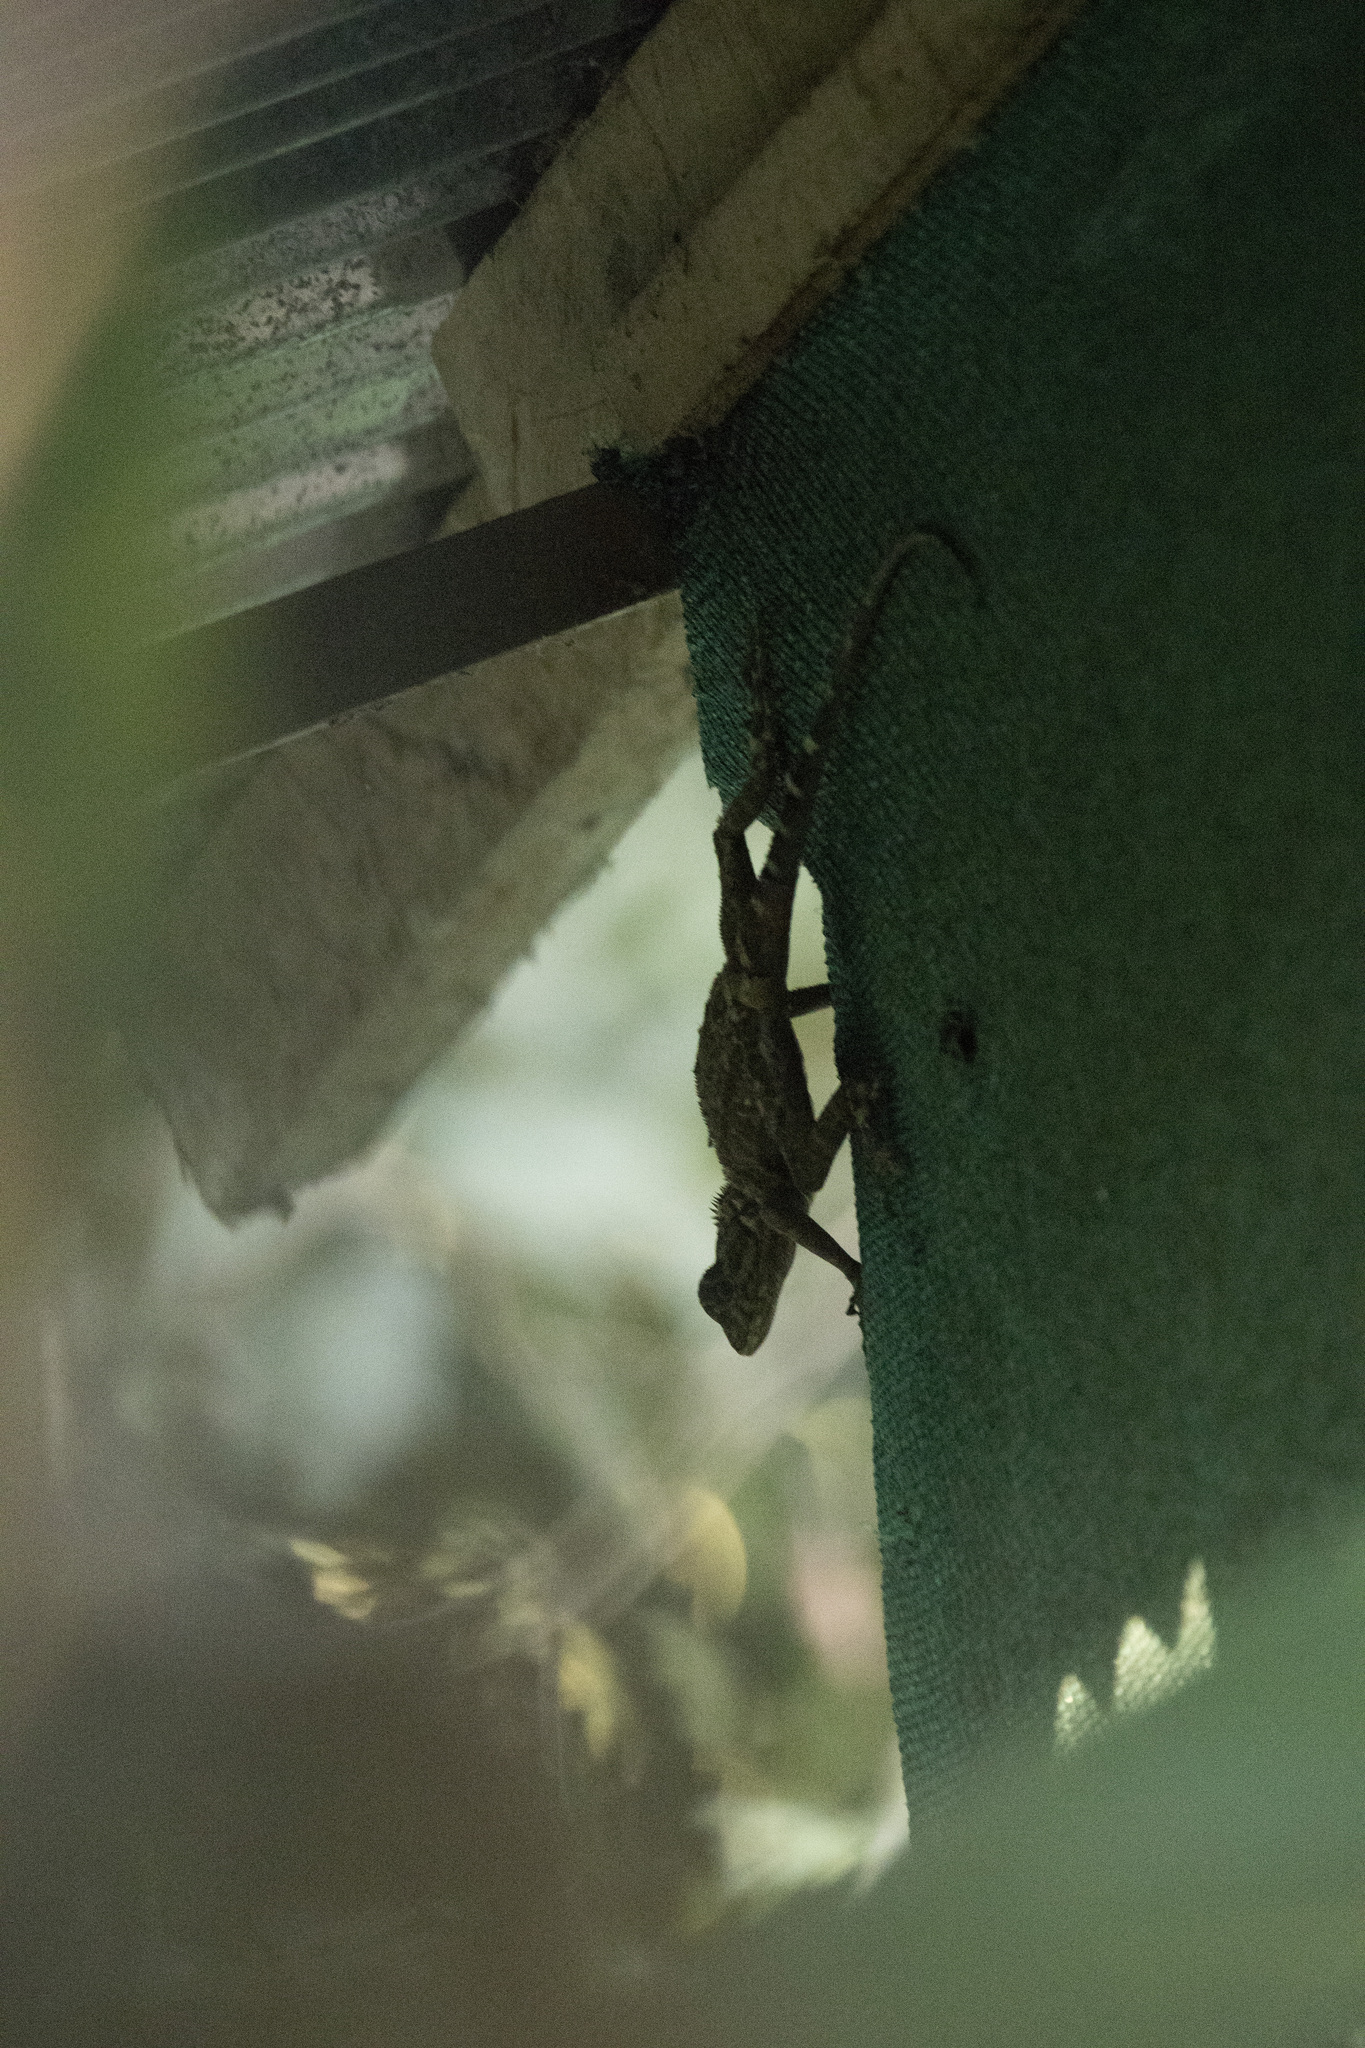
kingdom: Animalia
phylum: Chordata
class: Squamata
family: Tropiduridae
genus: Plica
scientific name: Plica plica
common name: Tree runner
